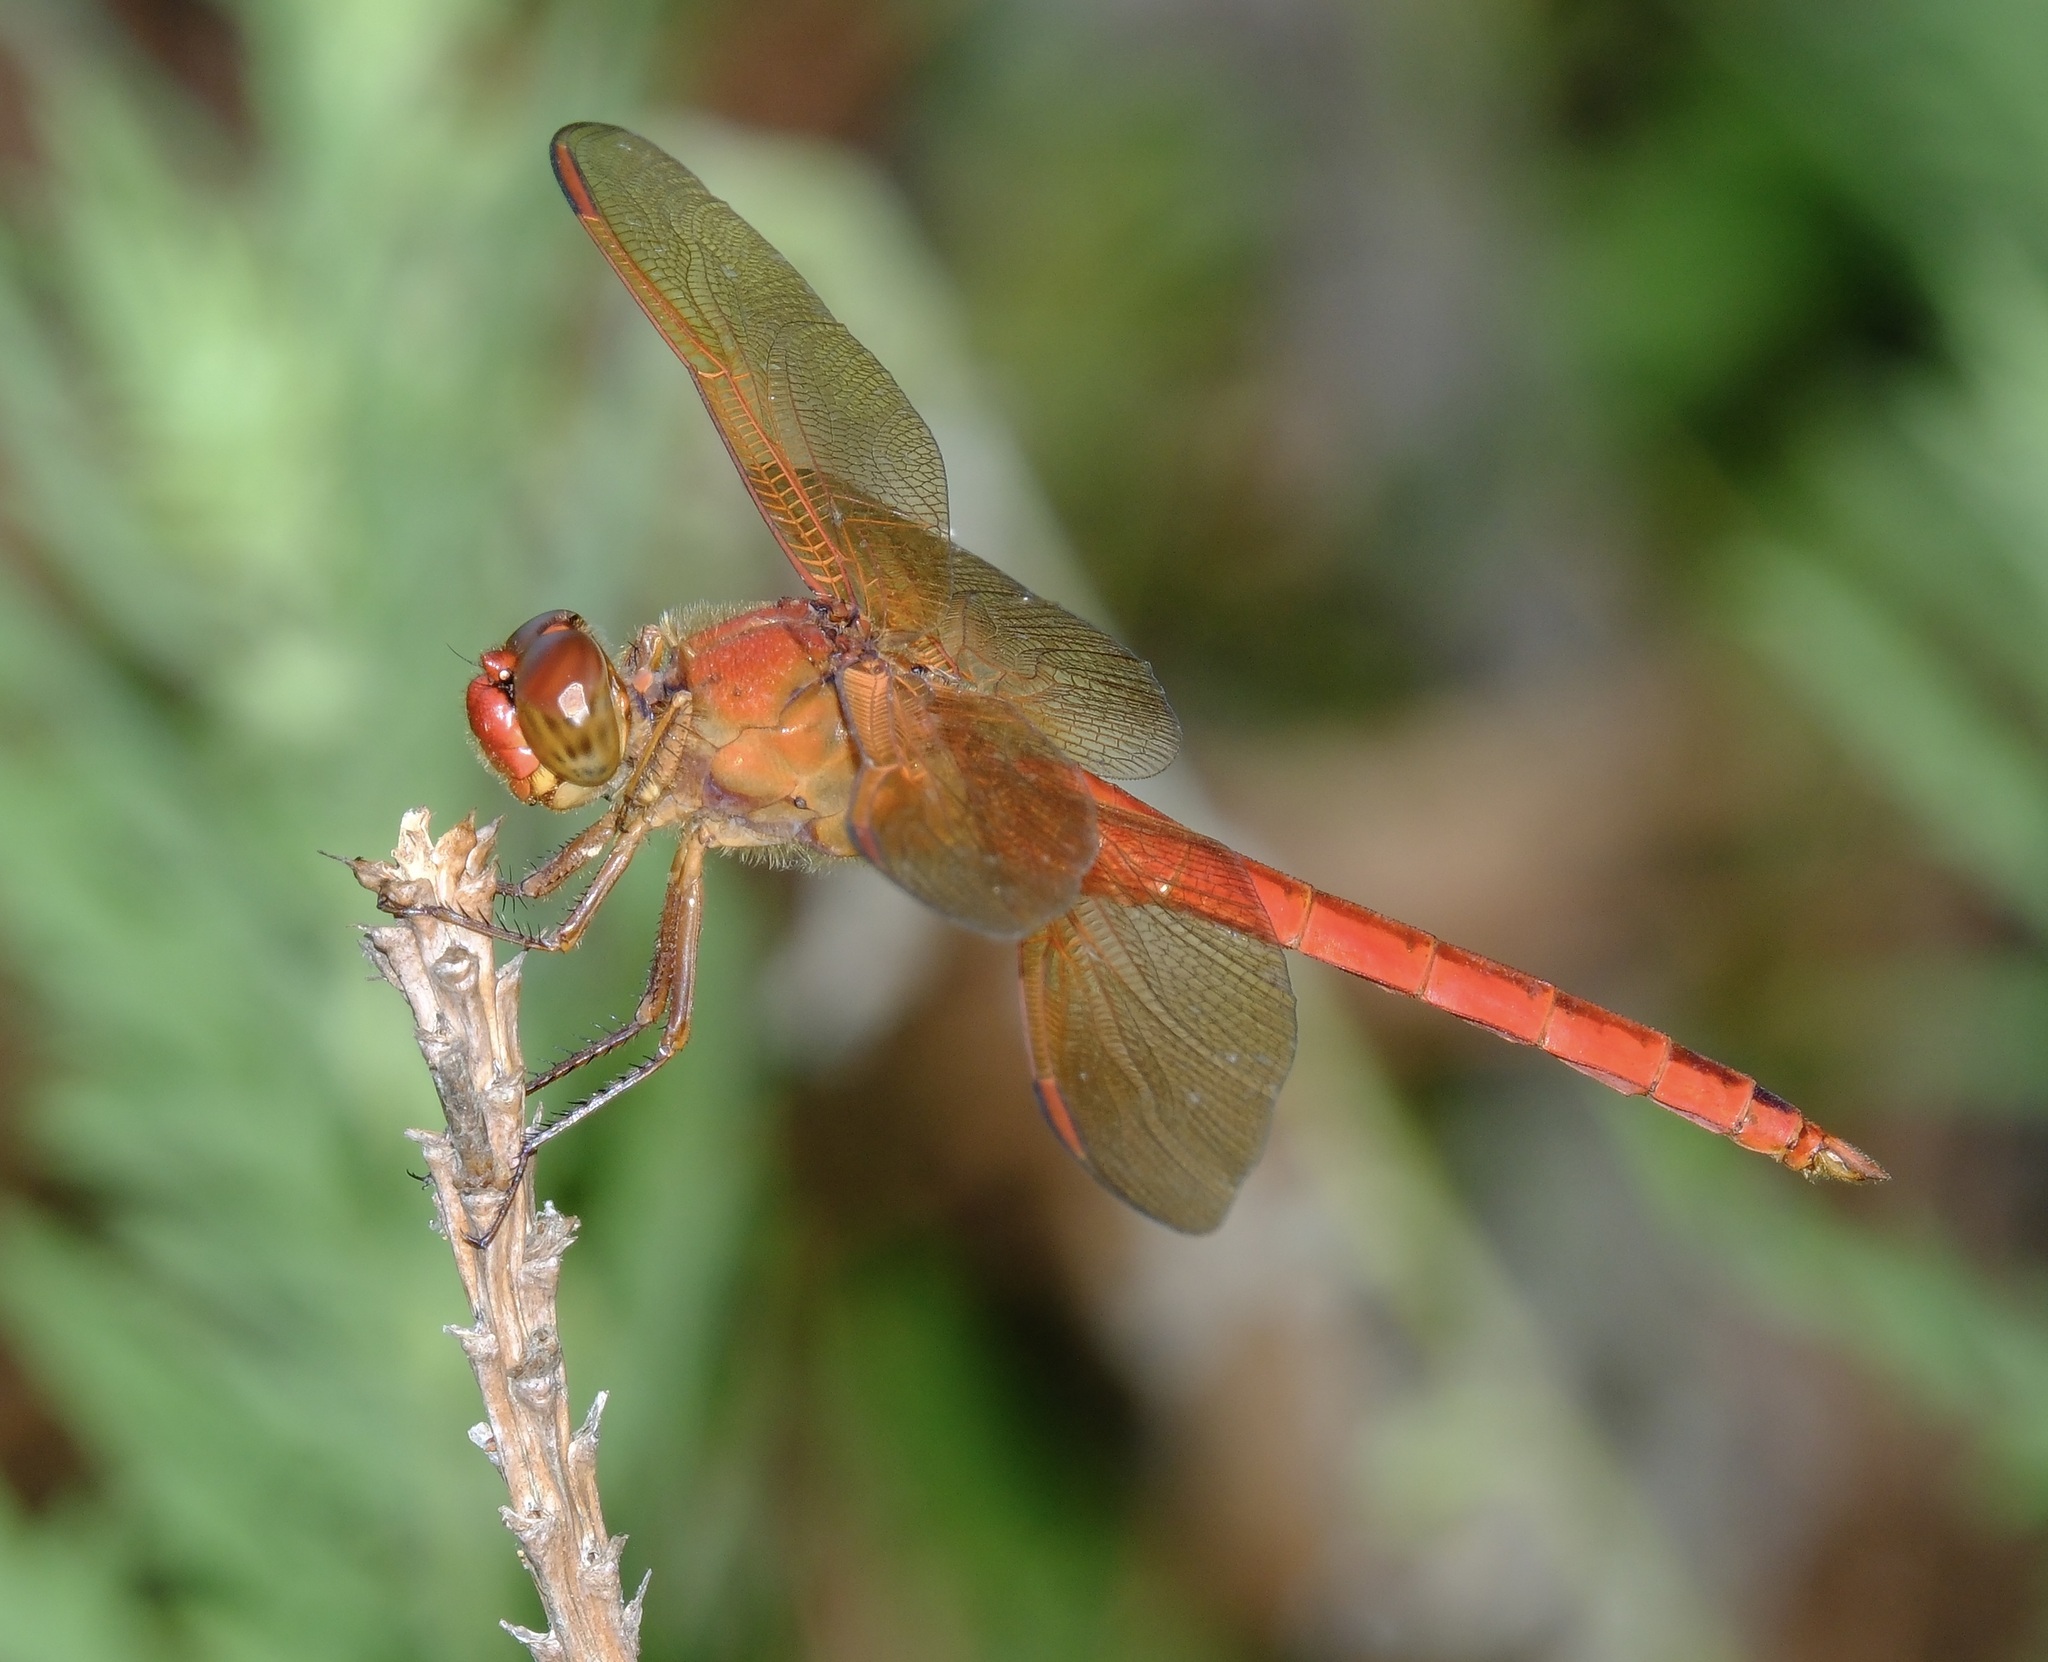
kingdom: Animalia
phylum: Arthropoda
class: Insecta
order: Odonata
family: Libellulidae
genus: Libellula
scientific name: Libellula needhami
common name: Needham's skimmer
